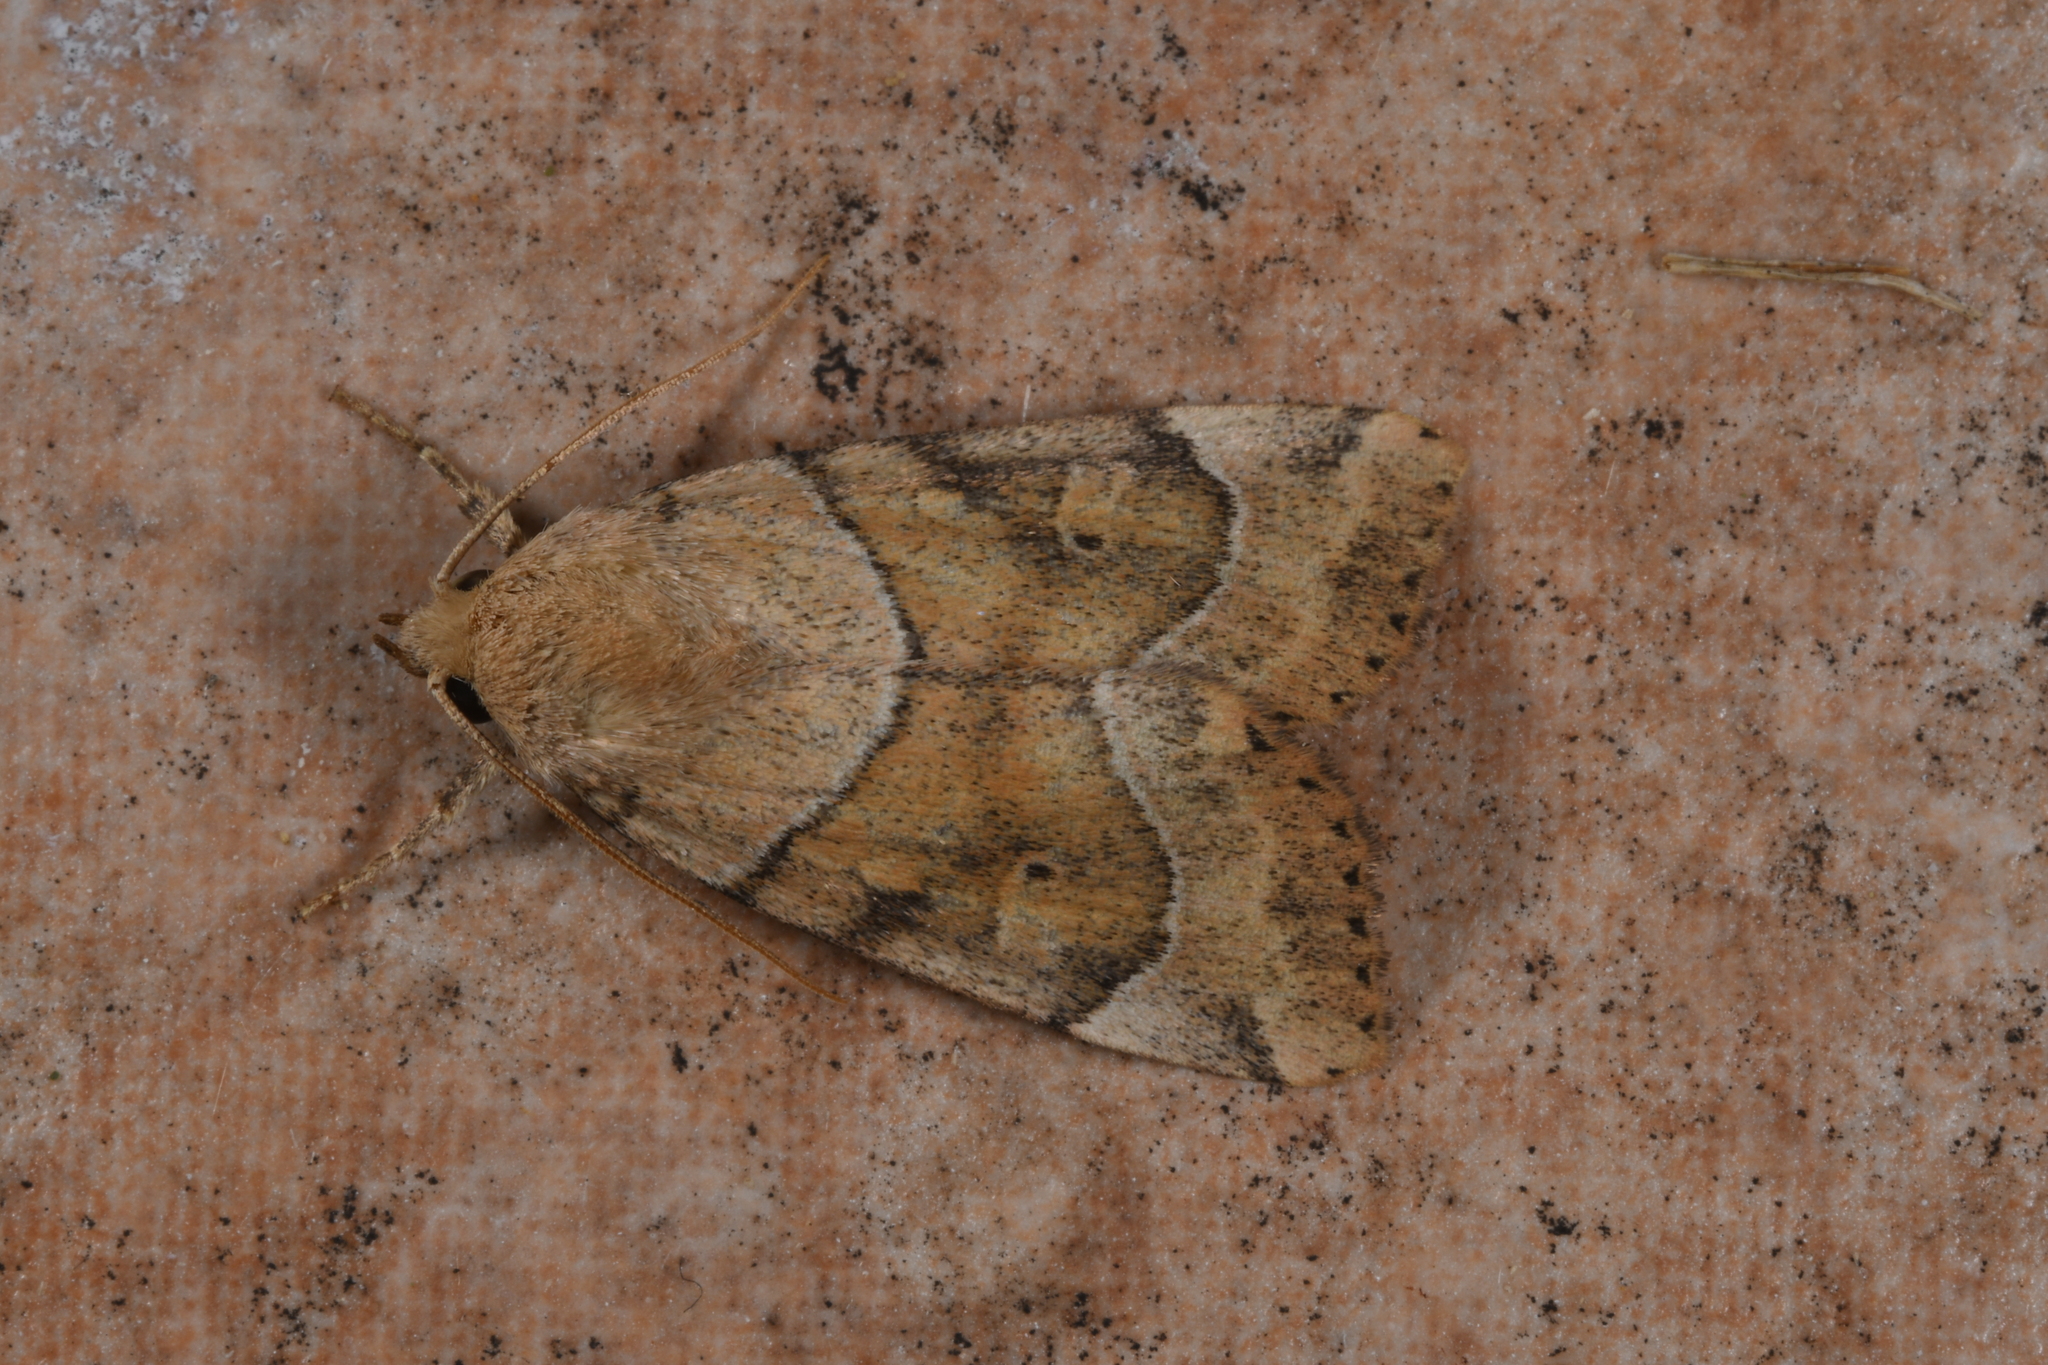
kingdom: Animalia
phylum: Arthropoda
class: Insecta
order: Lepidoptera
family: Noctuidae
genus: Cosmia
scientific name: Cosmia trapezina
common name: Dun-bar
